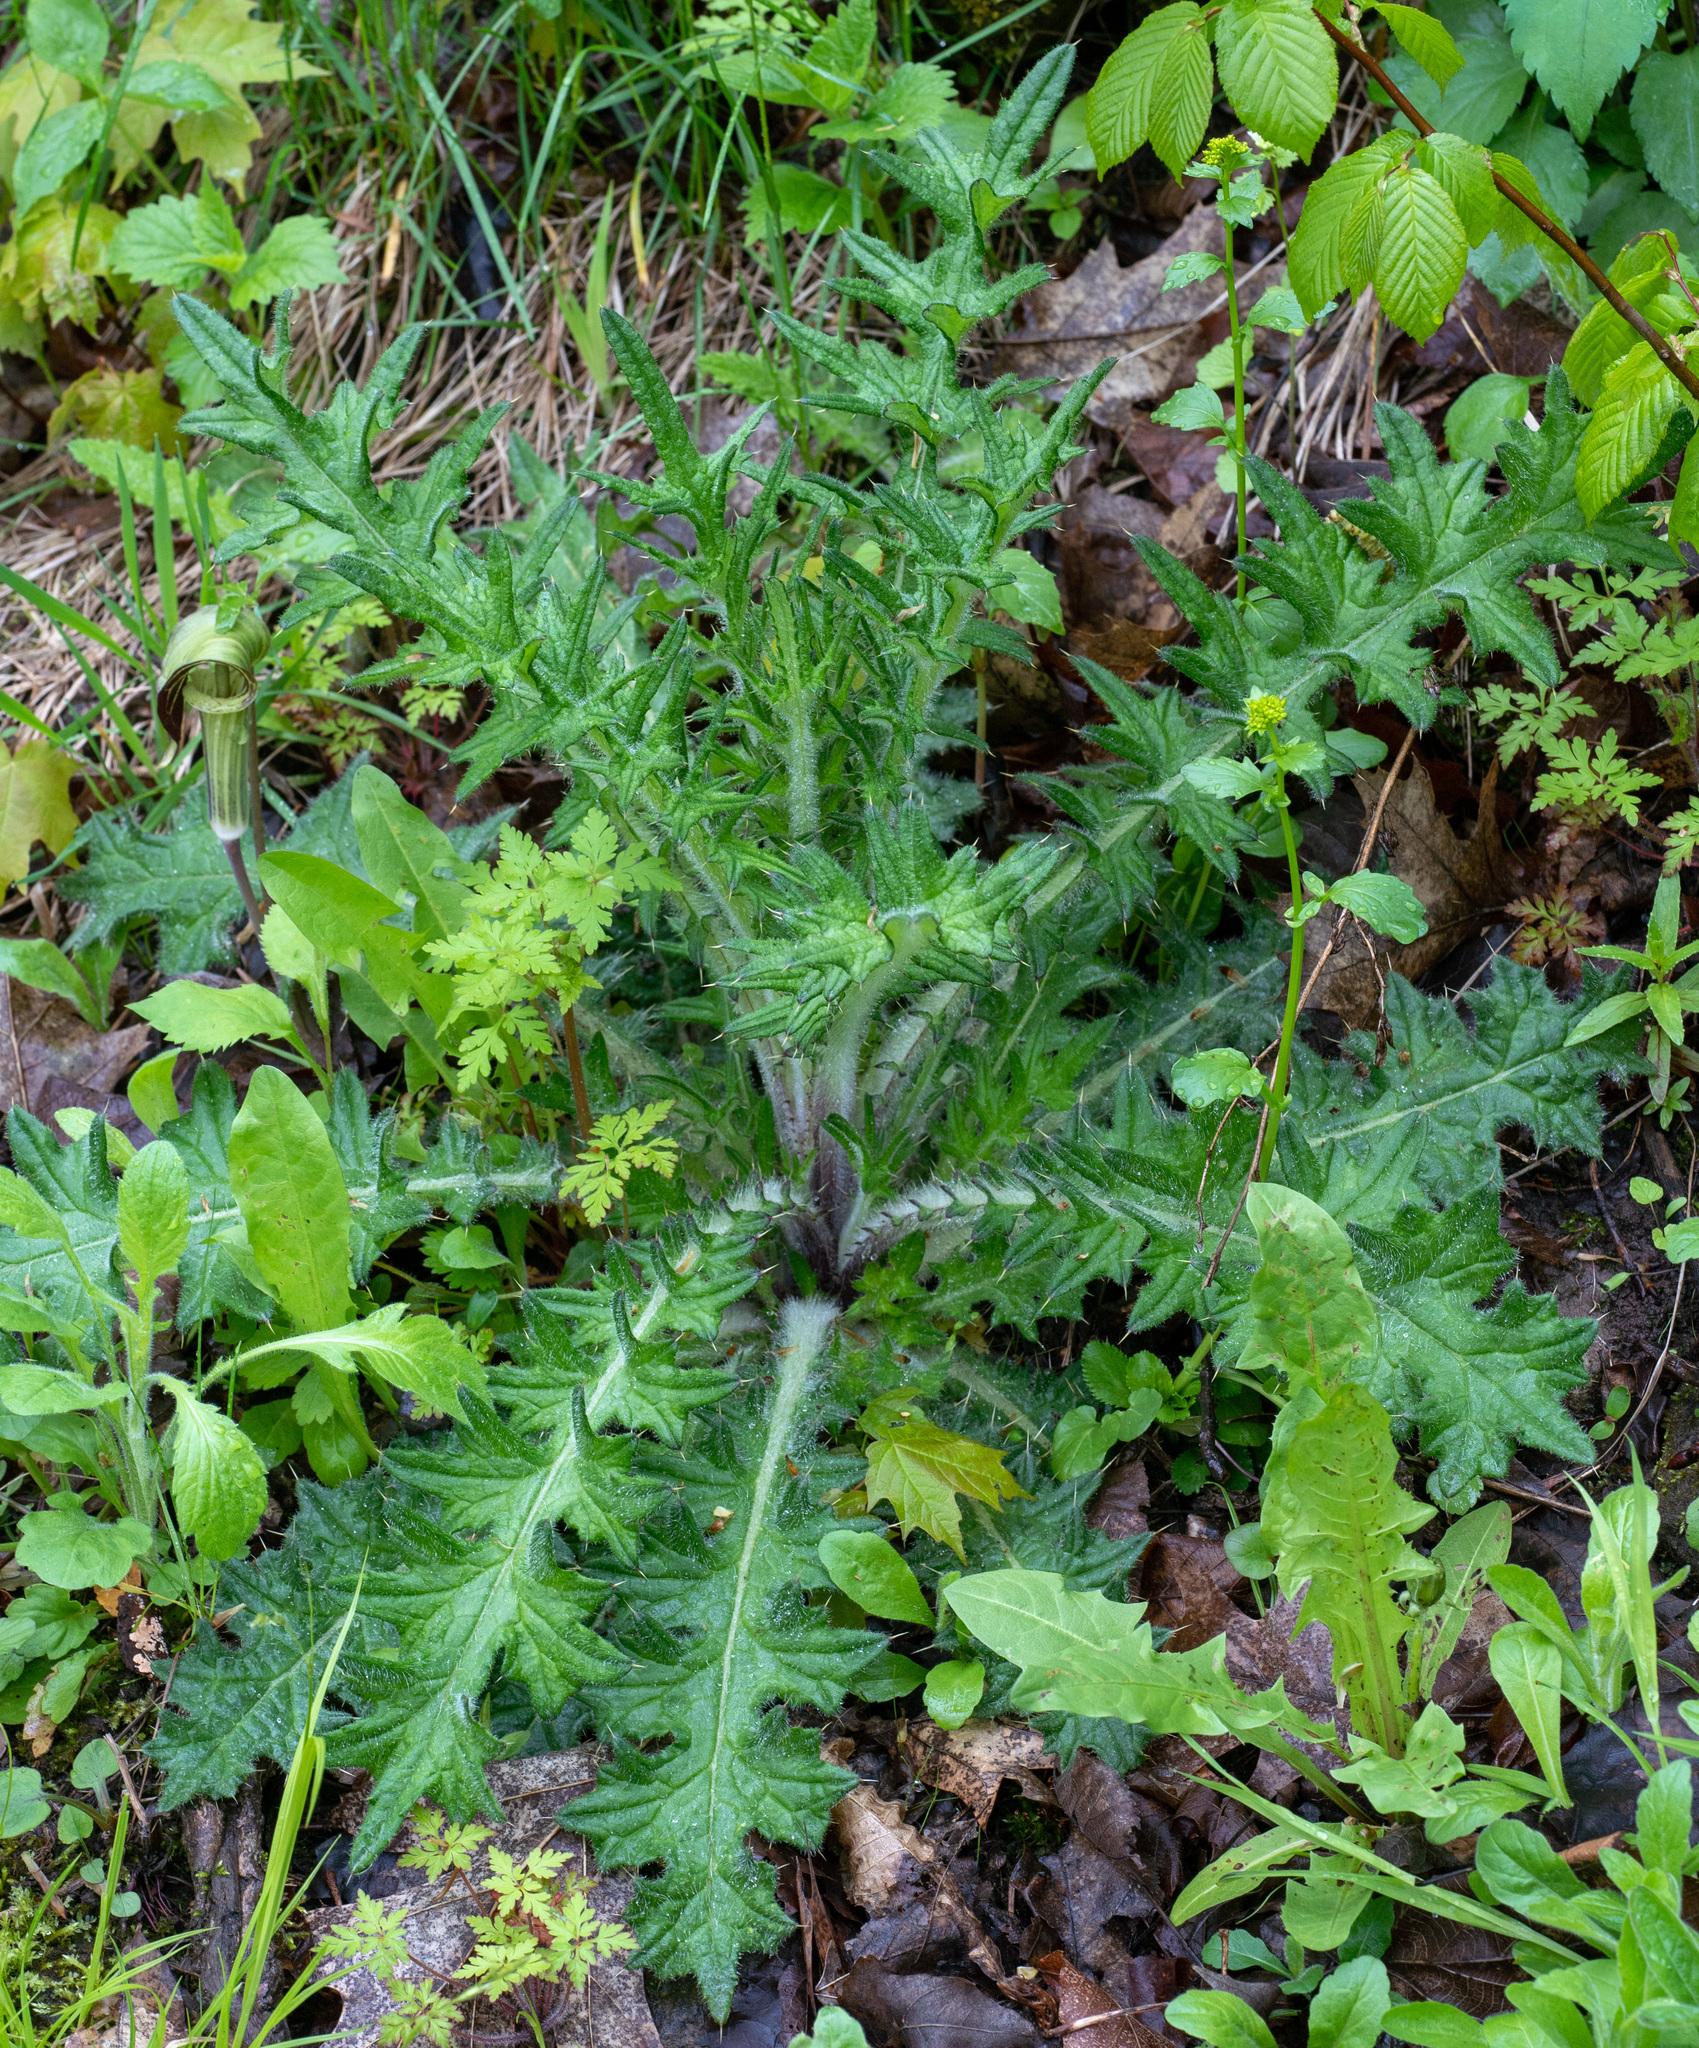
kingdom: Plantae
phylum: Tracheophyta
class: Magnoliopsida
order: Asterales
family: Asteraceae
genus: Cirsium
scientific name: Cirsium vulgare
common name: Bull thistle
